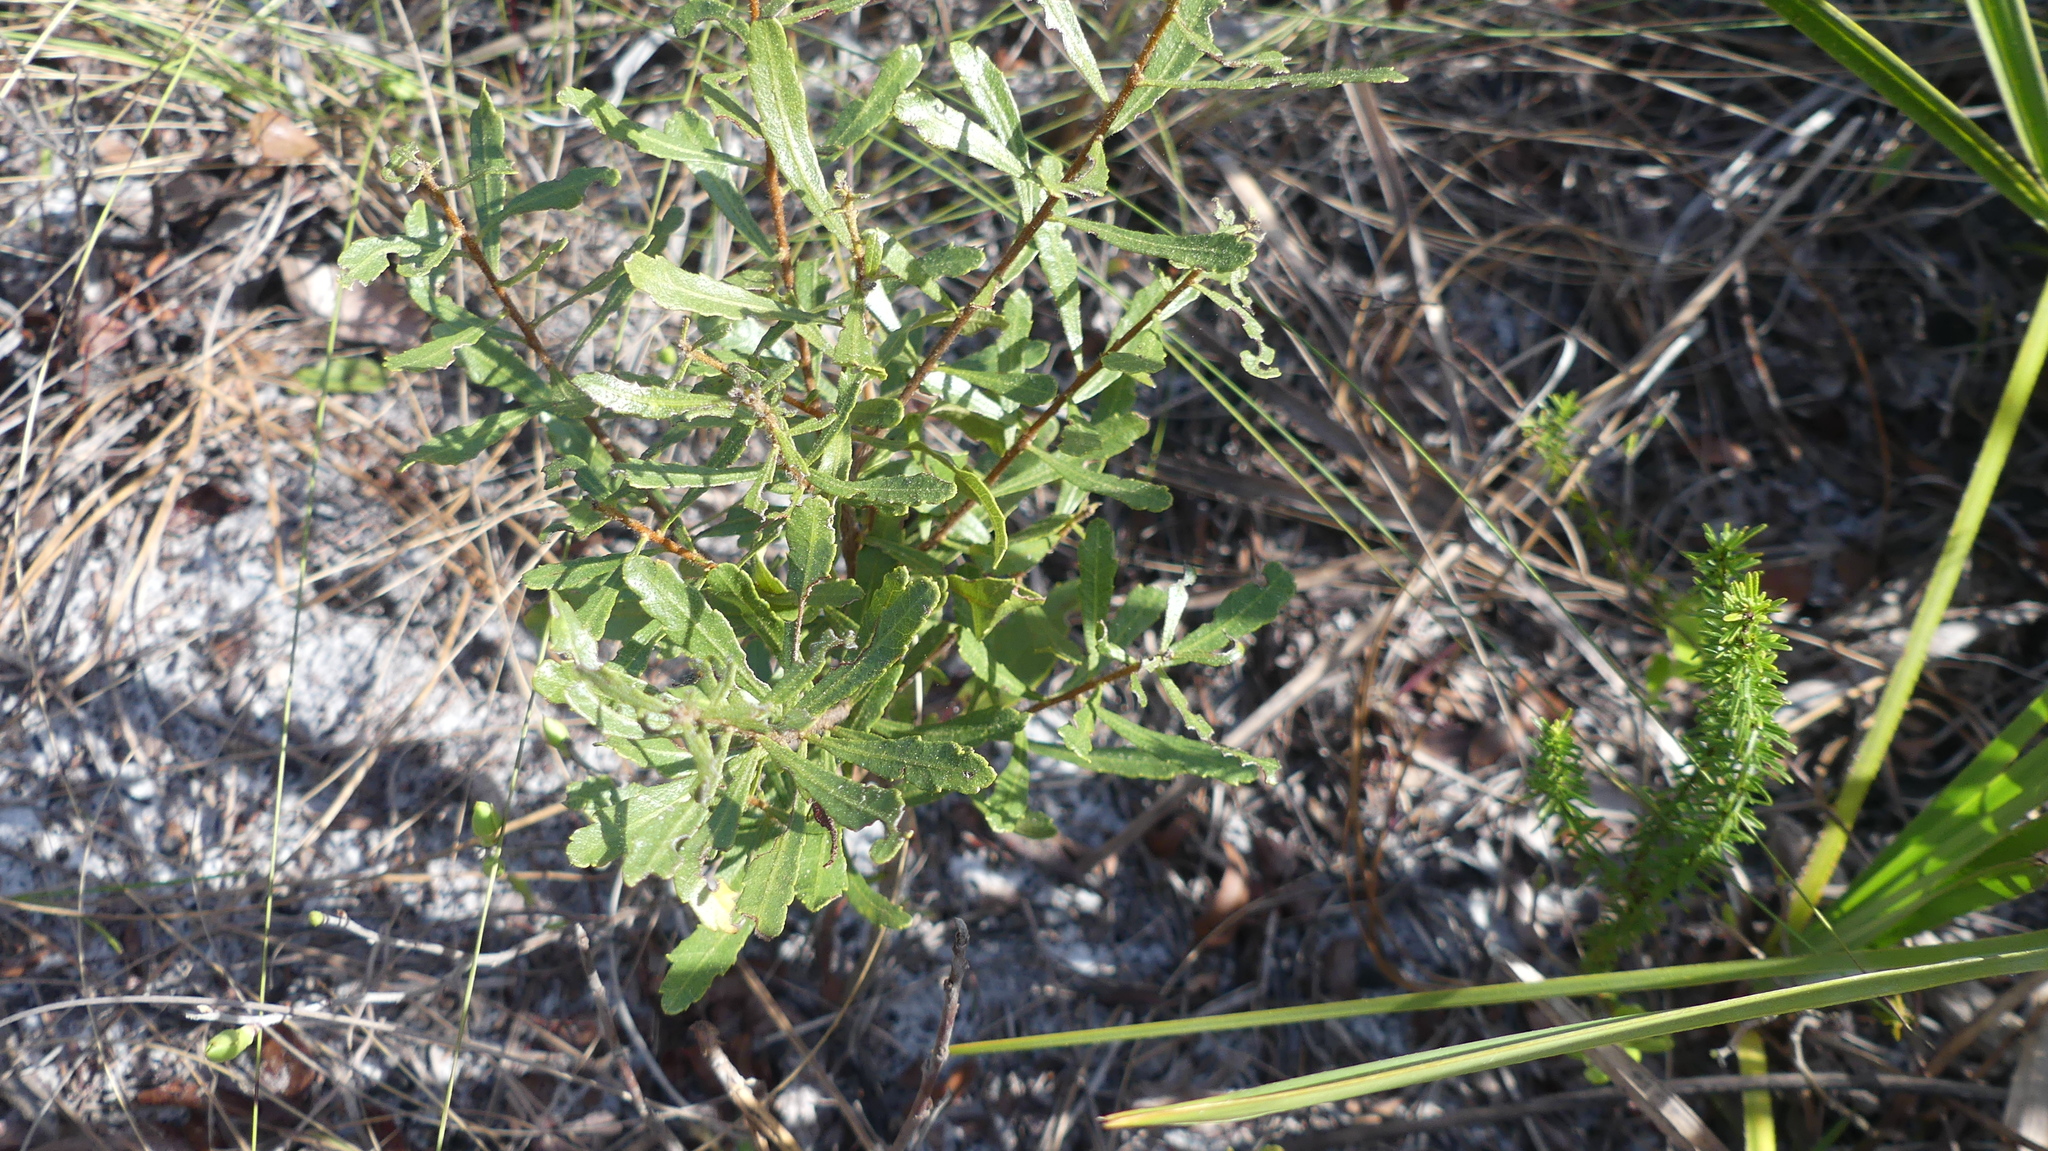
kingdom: Plantae
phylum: Tracheophyta
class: Magnoliopsida
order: Fagales
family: Myricaceae
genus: Morella
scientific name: Morella cerifera
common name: Wax myrtle
